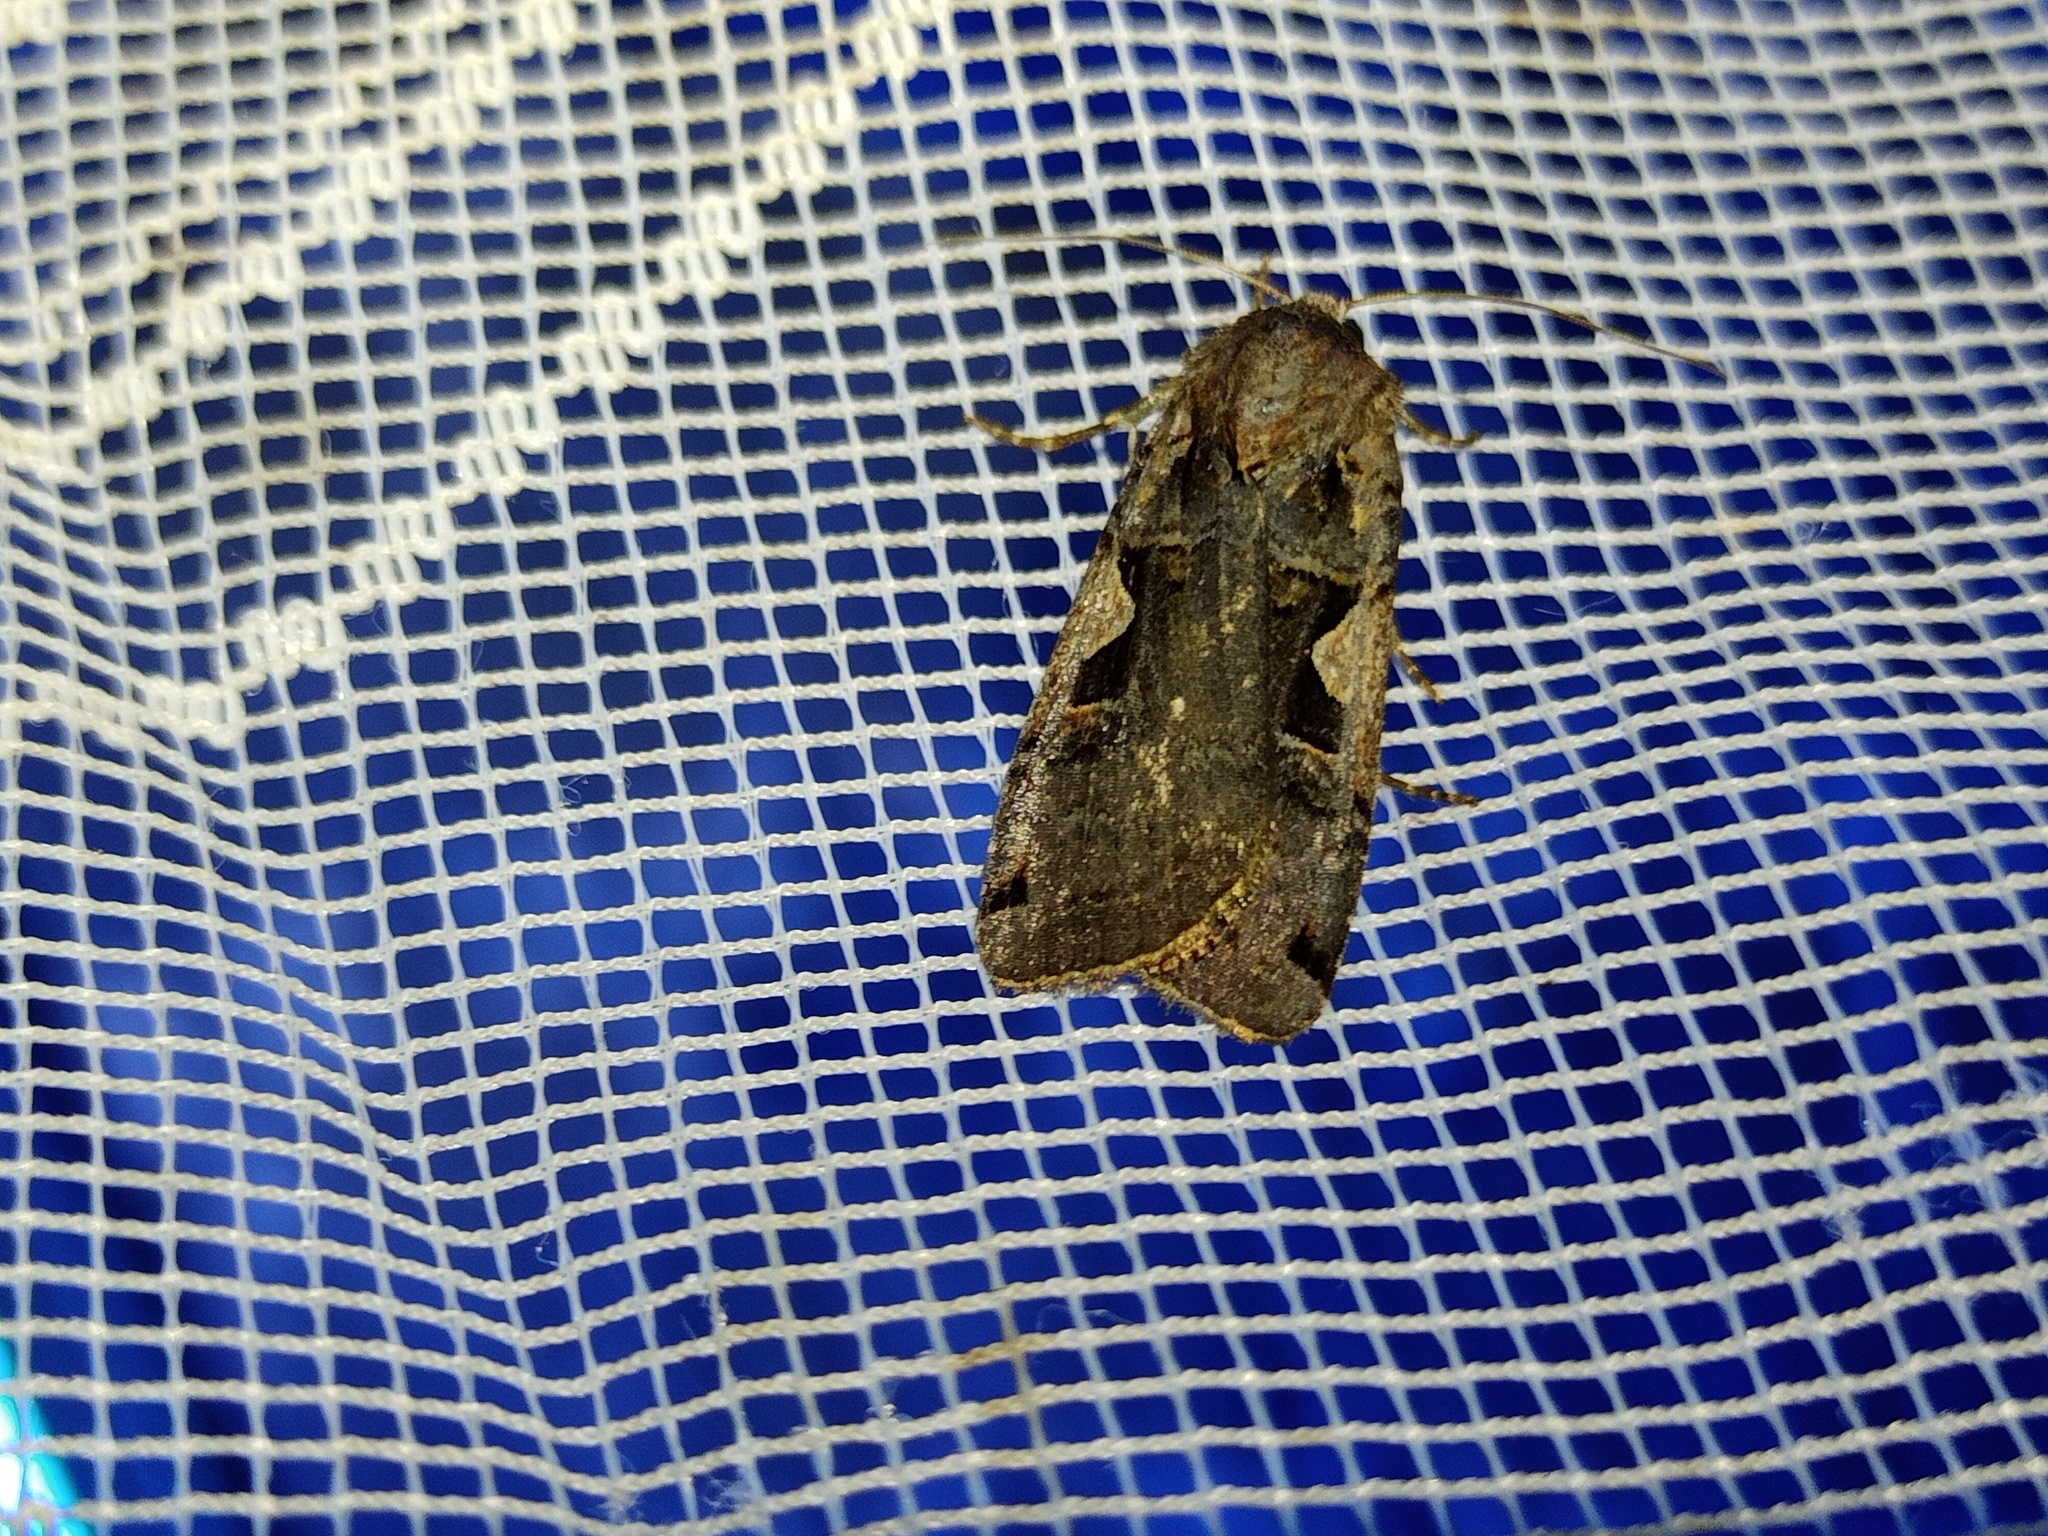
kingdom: Animalia
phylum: Arthropoda
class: Insecta
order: Lepidoptera
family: Noctuidae
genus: Xestia
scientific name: Xestia c-nigrum
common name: Setaceous hebrew character
